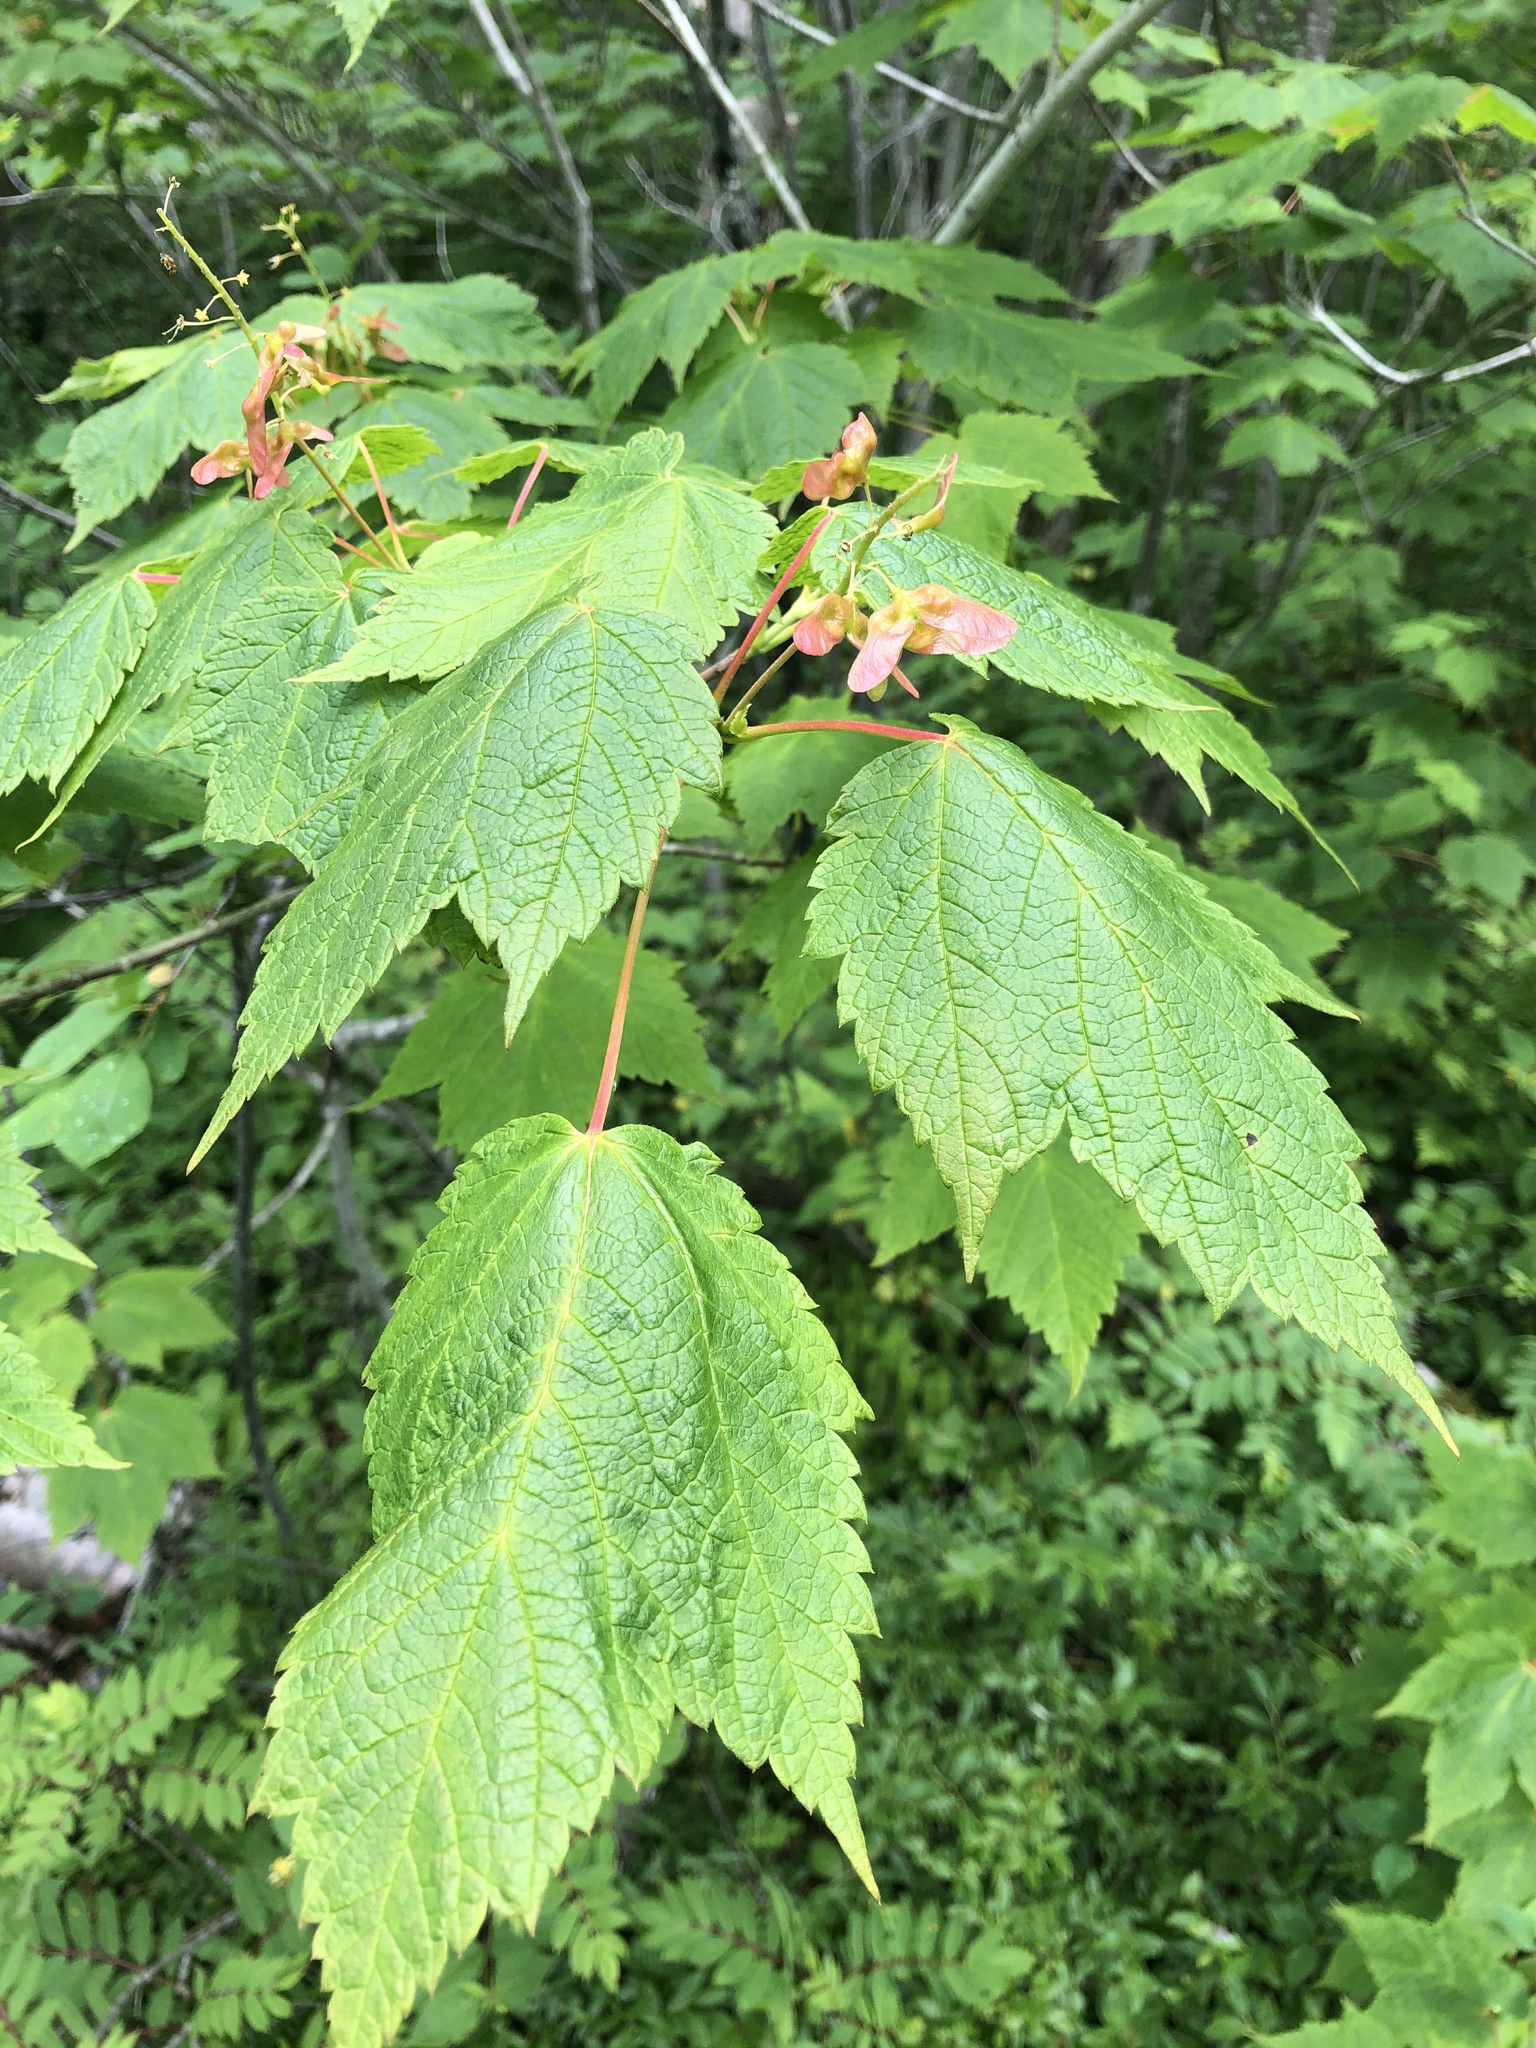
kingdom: Plantae
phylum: Tracheophyta
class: Magnoliopsida
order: Sapindales
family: Sapindaceae
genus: Acer
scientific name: Acer spicatum
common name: Mountain maple
